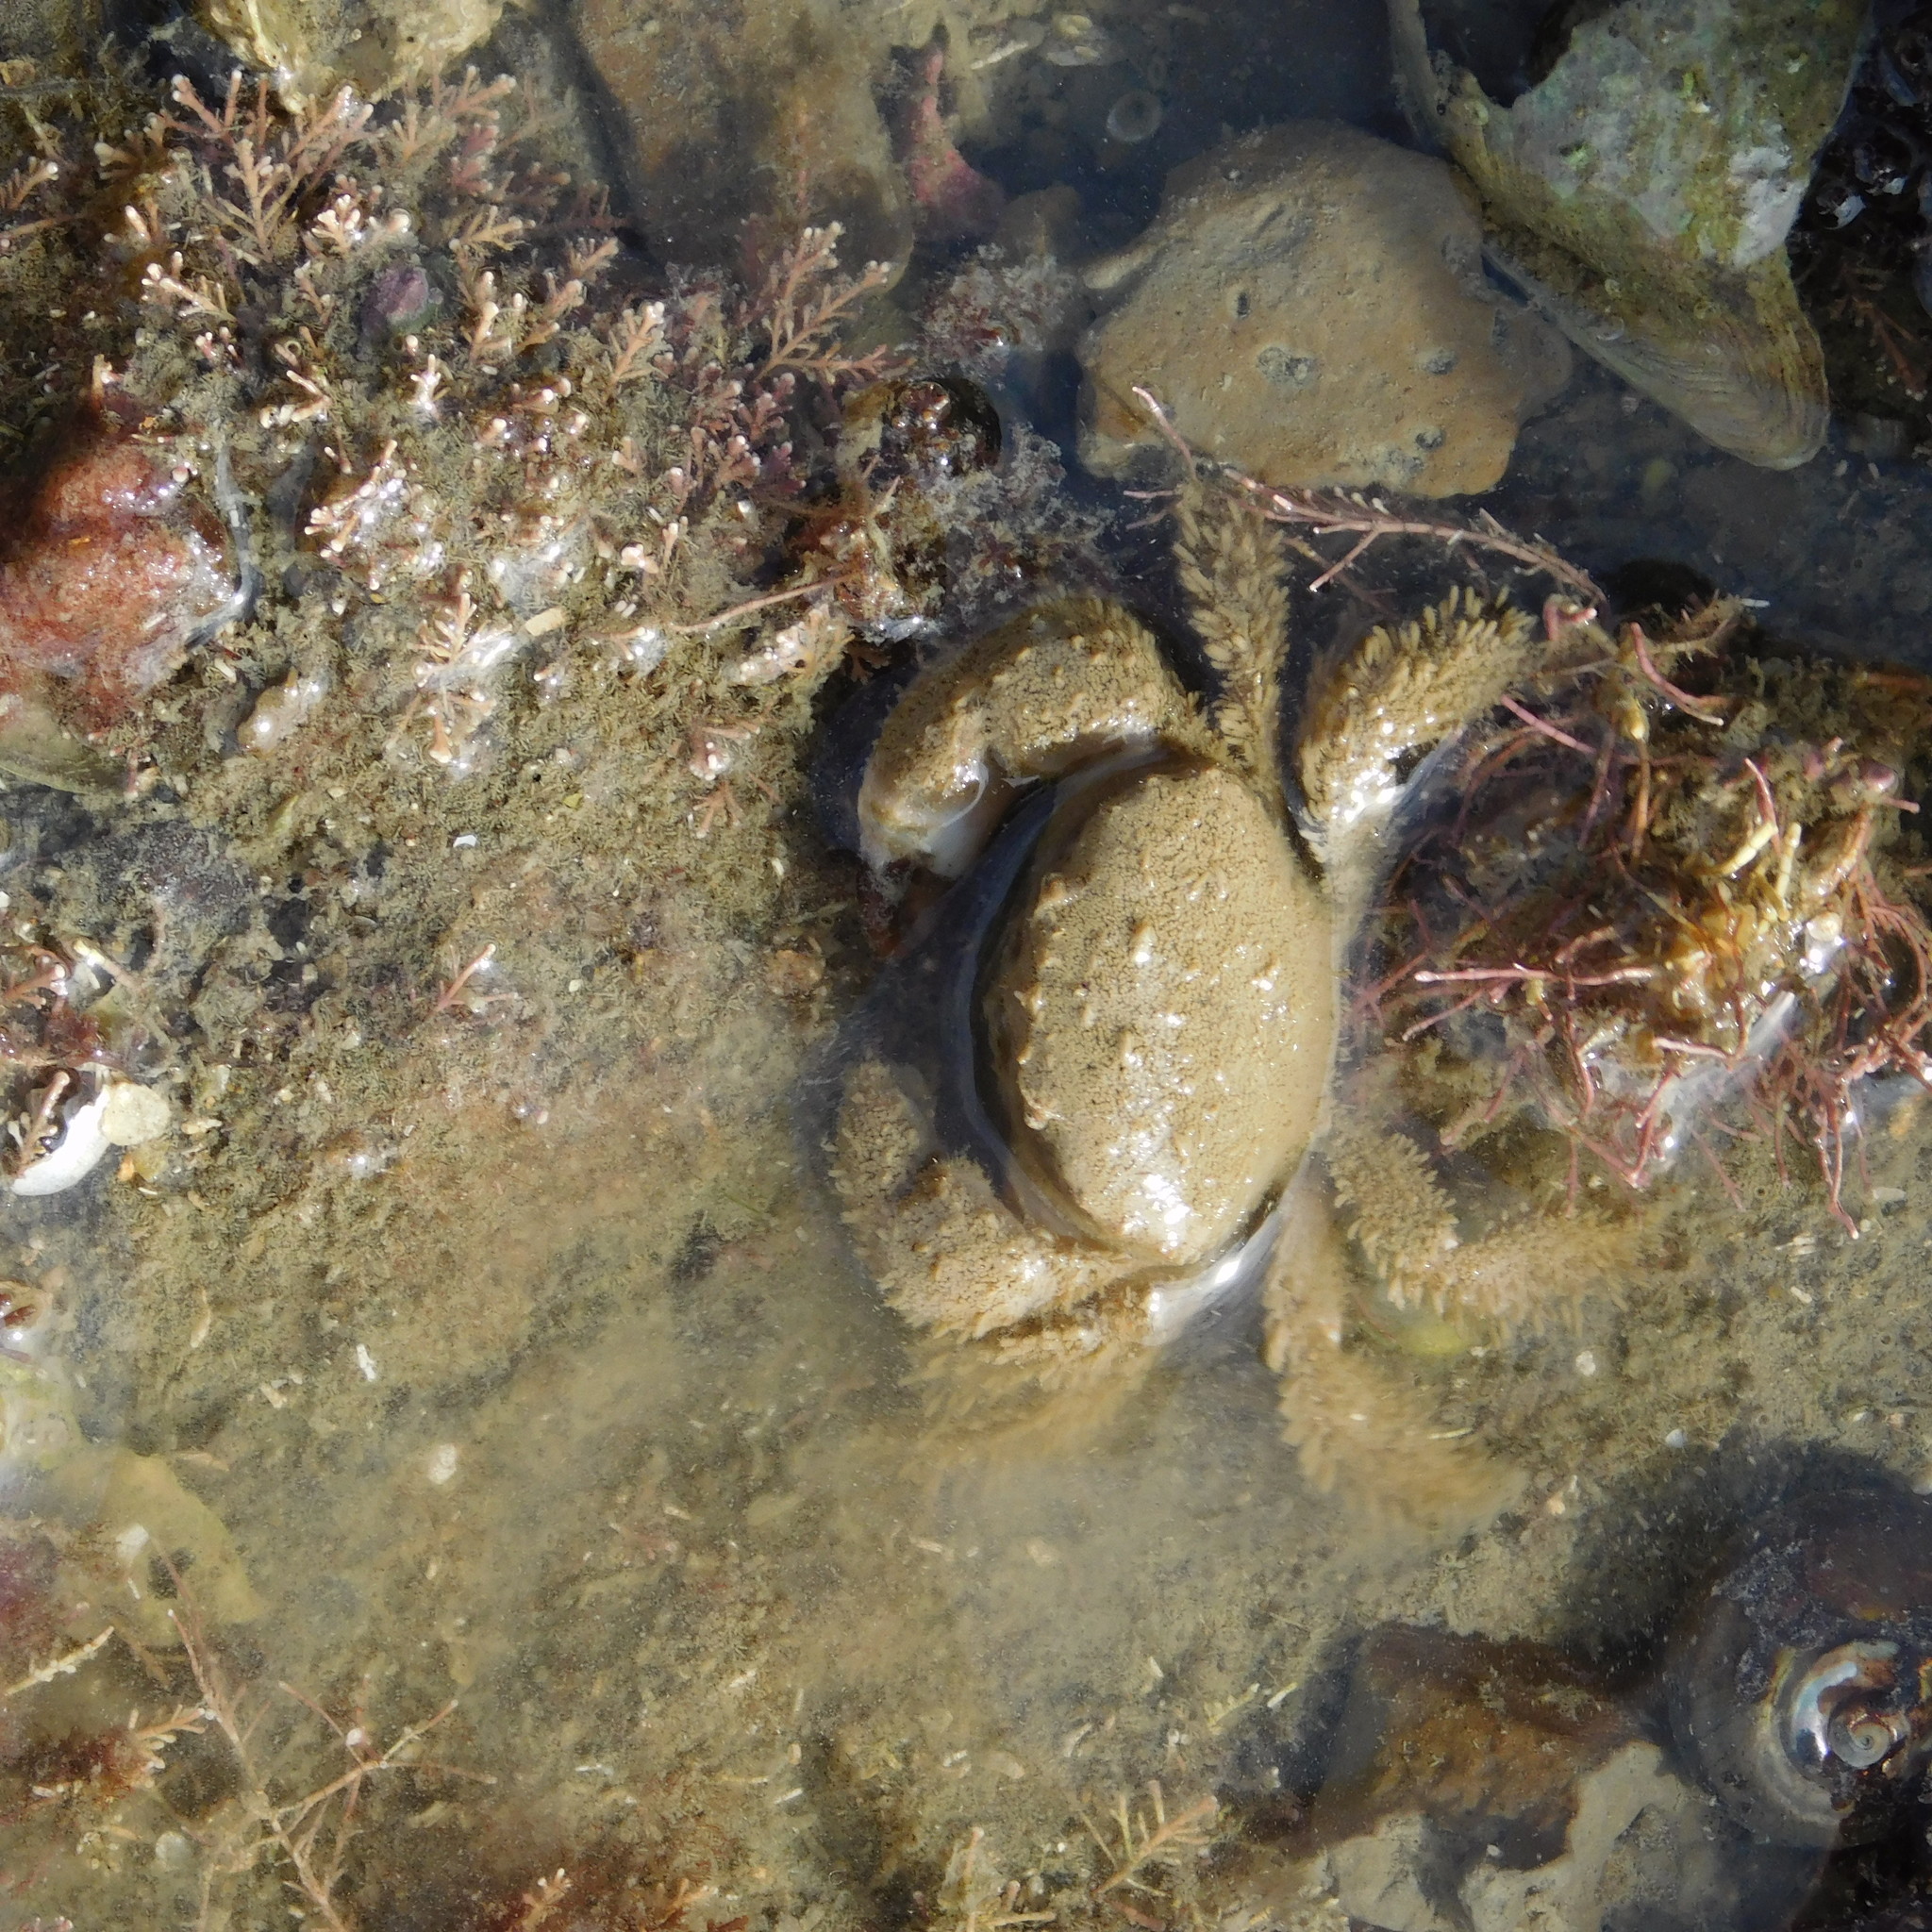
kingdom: Animalia
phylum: Arthropoda
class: Malacostraca
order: Decapoda
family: Pilumnidae
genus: Pilumnus
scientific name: Pilumnus lumpinus
